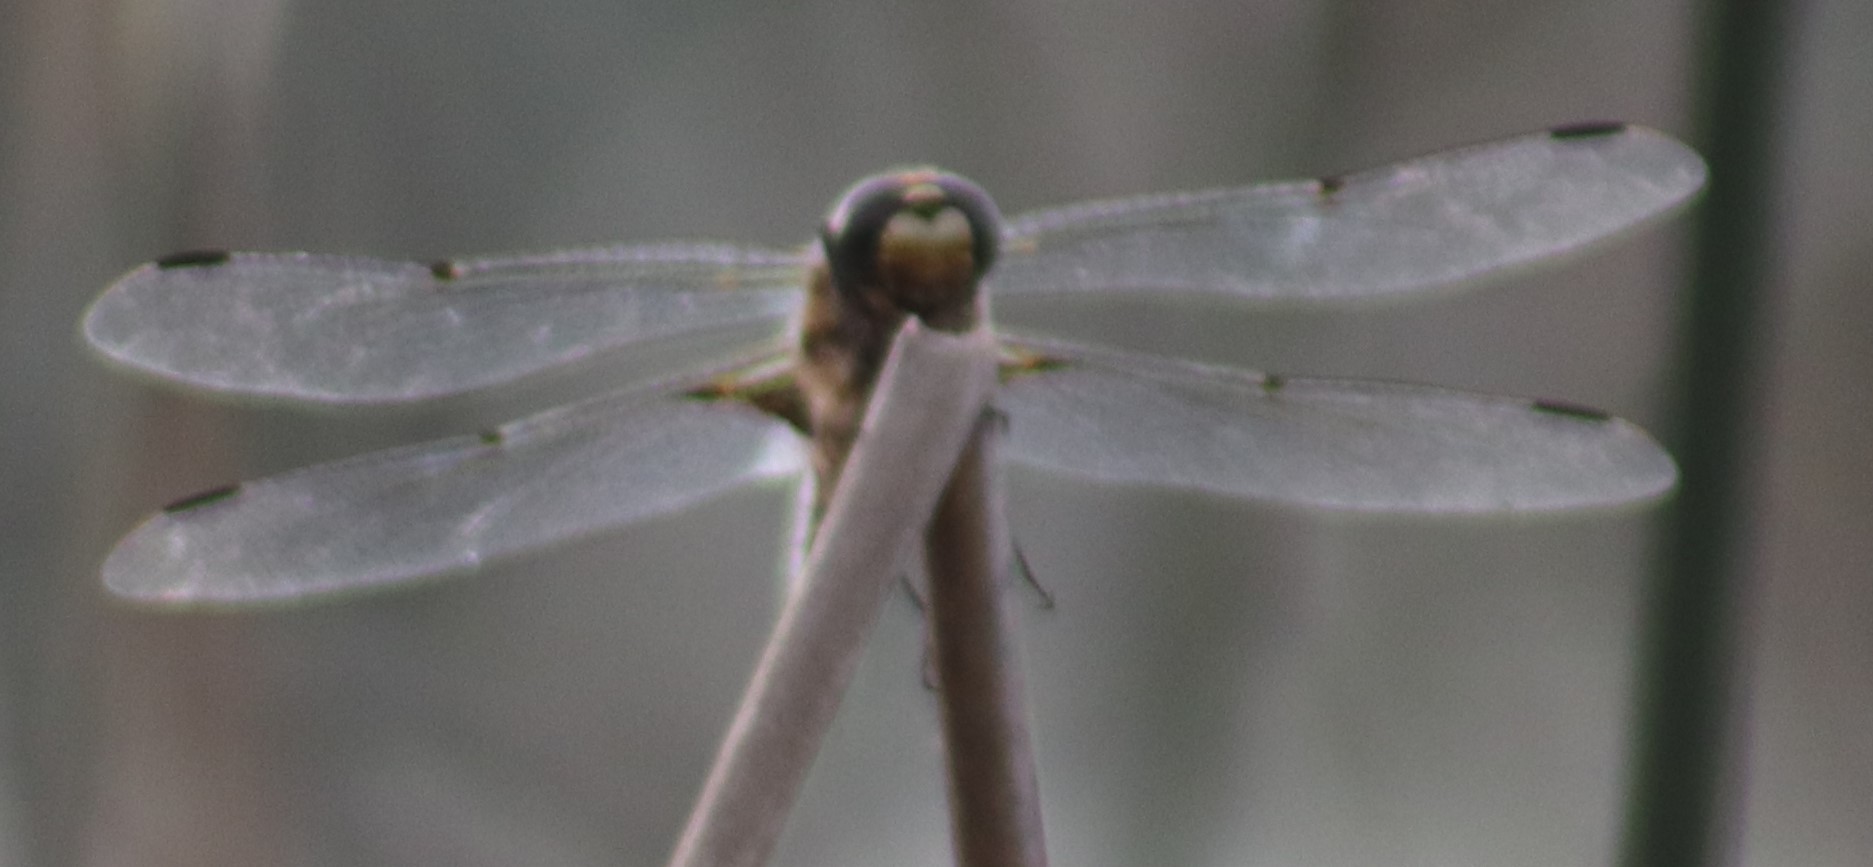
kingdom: Animalia
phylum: Arthropoda
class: Insecta
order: Odonata
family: Libellulidae
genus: Libellula
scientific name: Libellula quadrimaculata
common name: Four-spotted chaser
